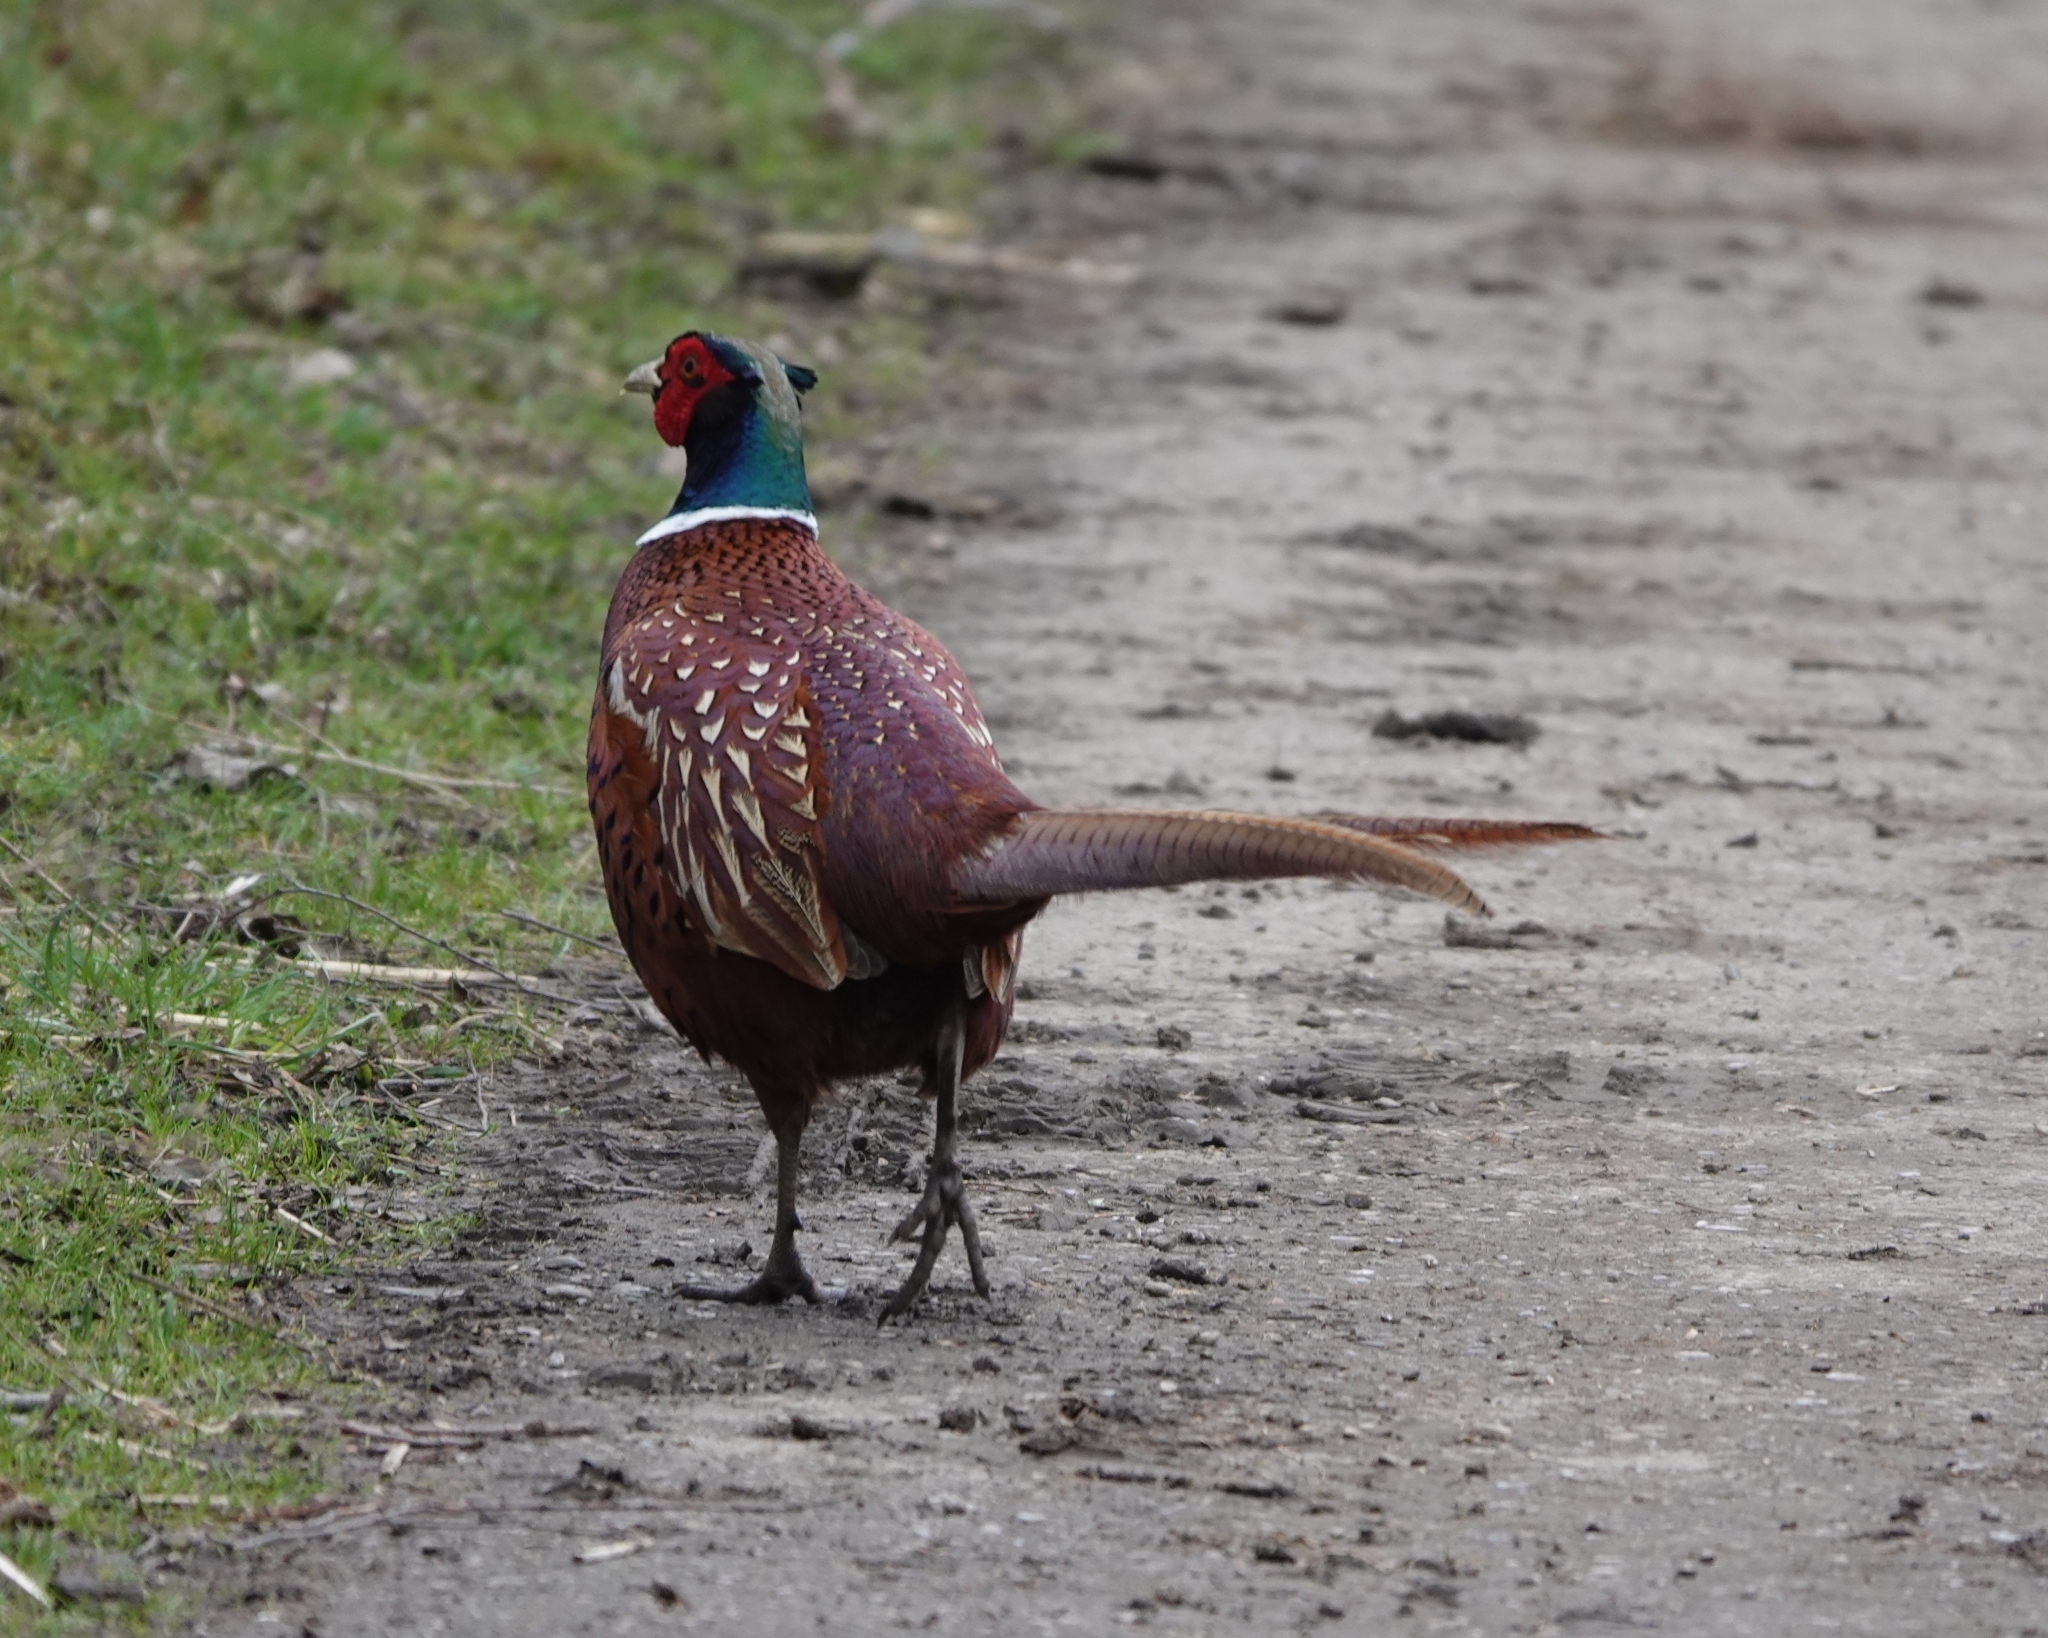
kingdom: Animalia
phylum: Chordata
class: Aves
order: Galliformes
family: Phasianidae
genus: Phasianus
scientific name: Phasianus colchicus
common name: Common pheasant
